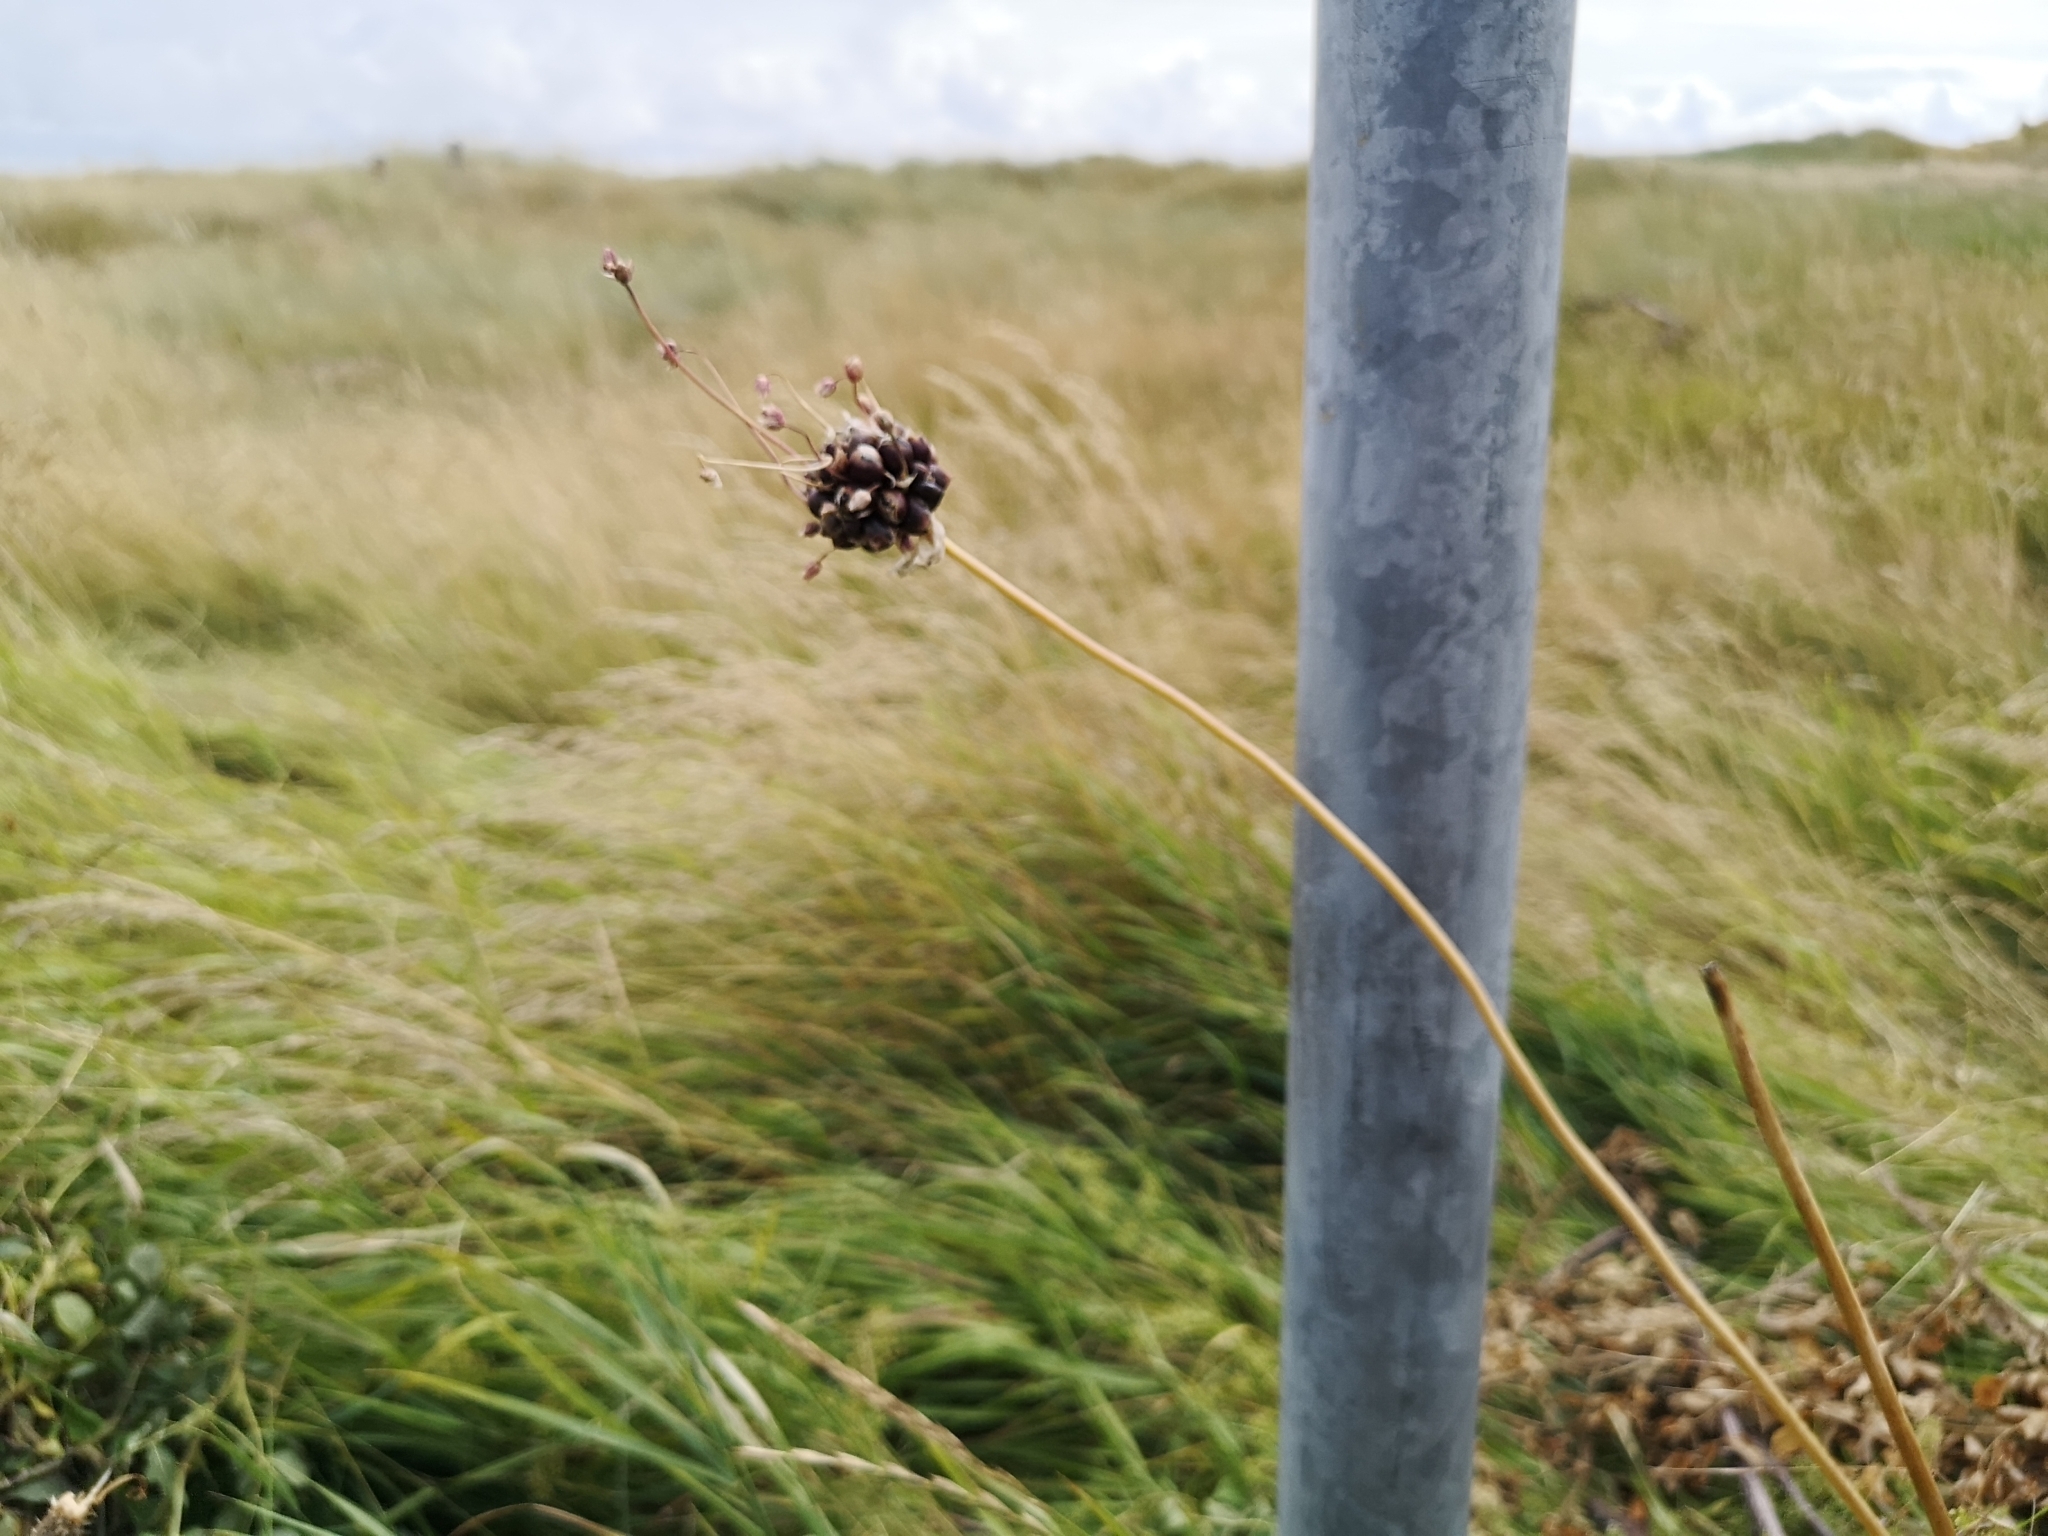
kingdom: Plantae
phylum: Tracheophyta
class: Liliopsida
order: Asparagales
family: Amaryllidaceae
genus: Allium
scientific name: Allium scorodoprasum
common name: Sand leek
